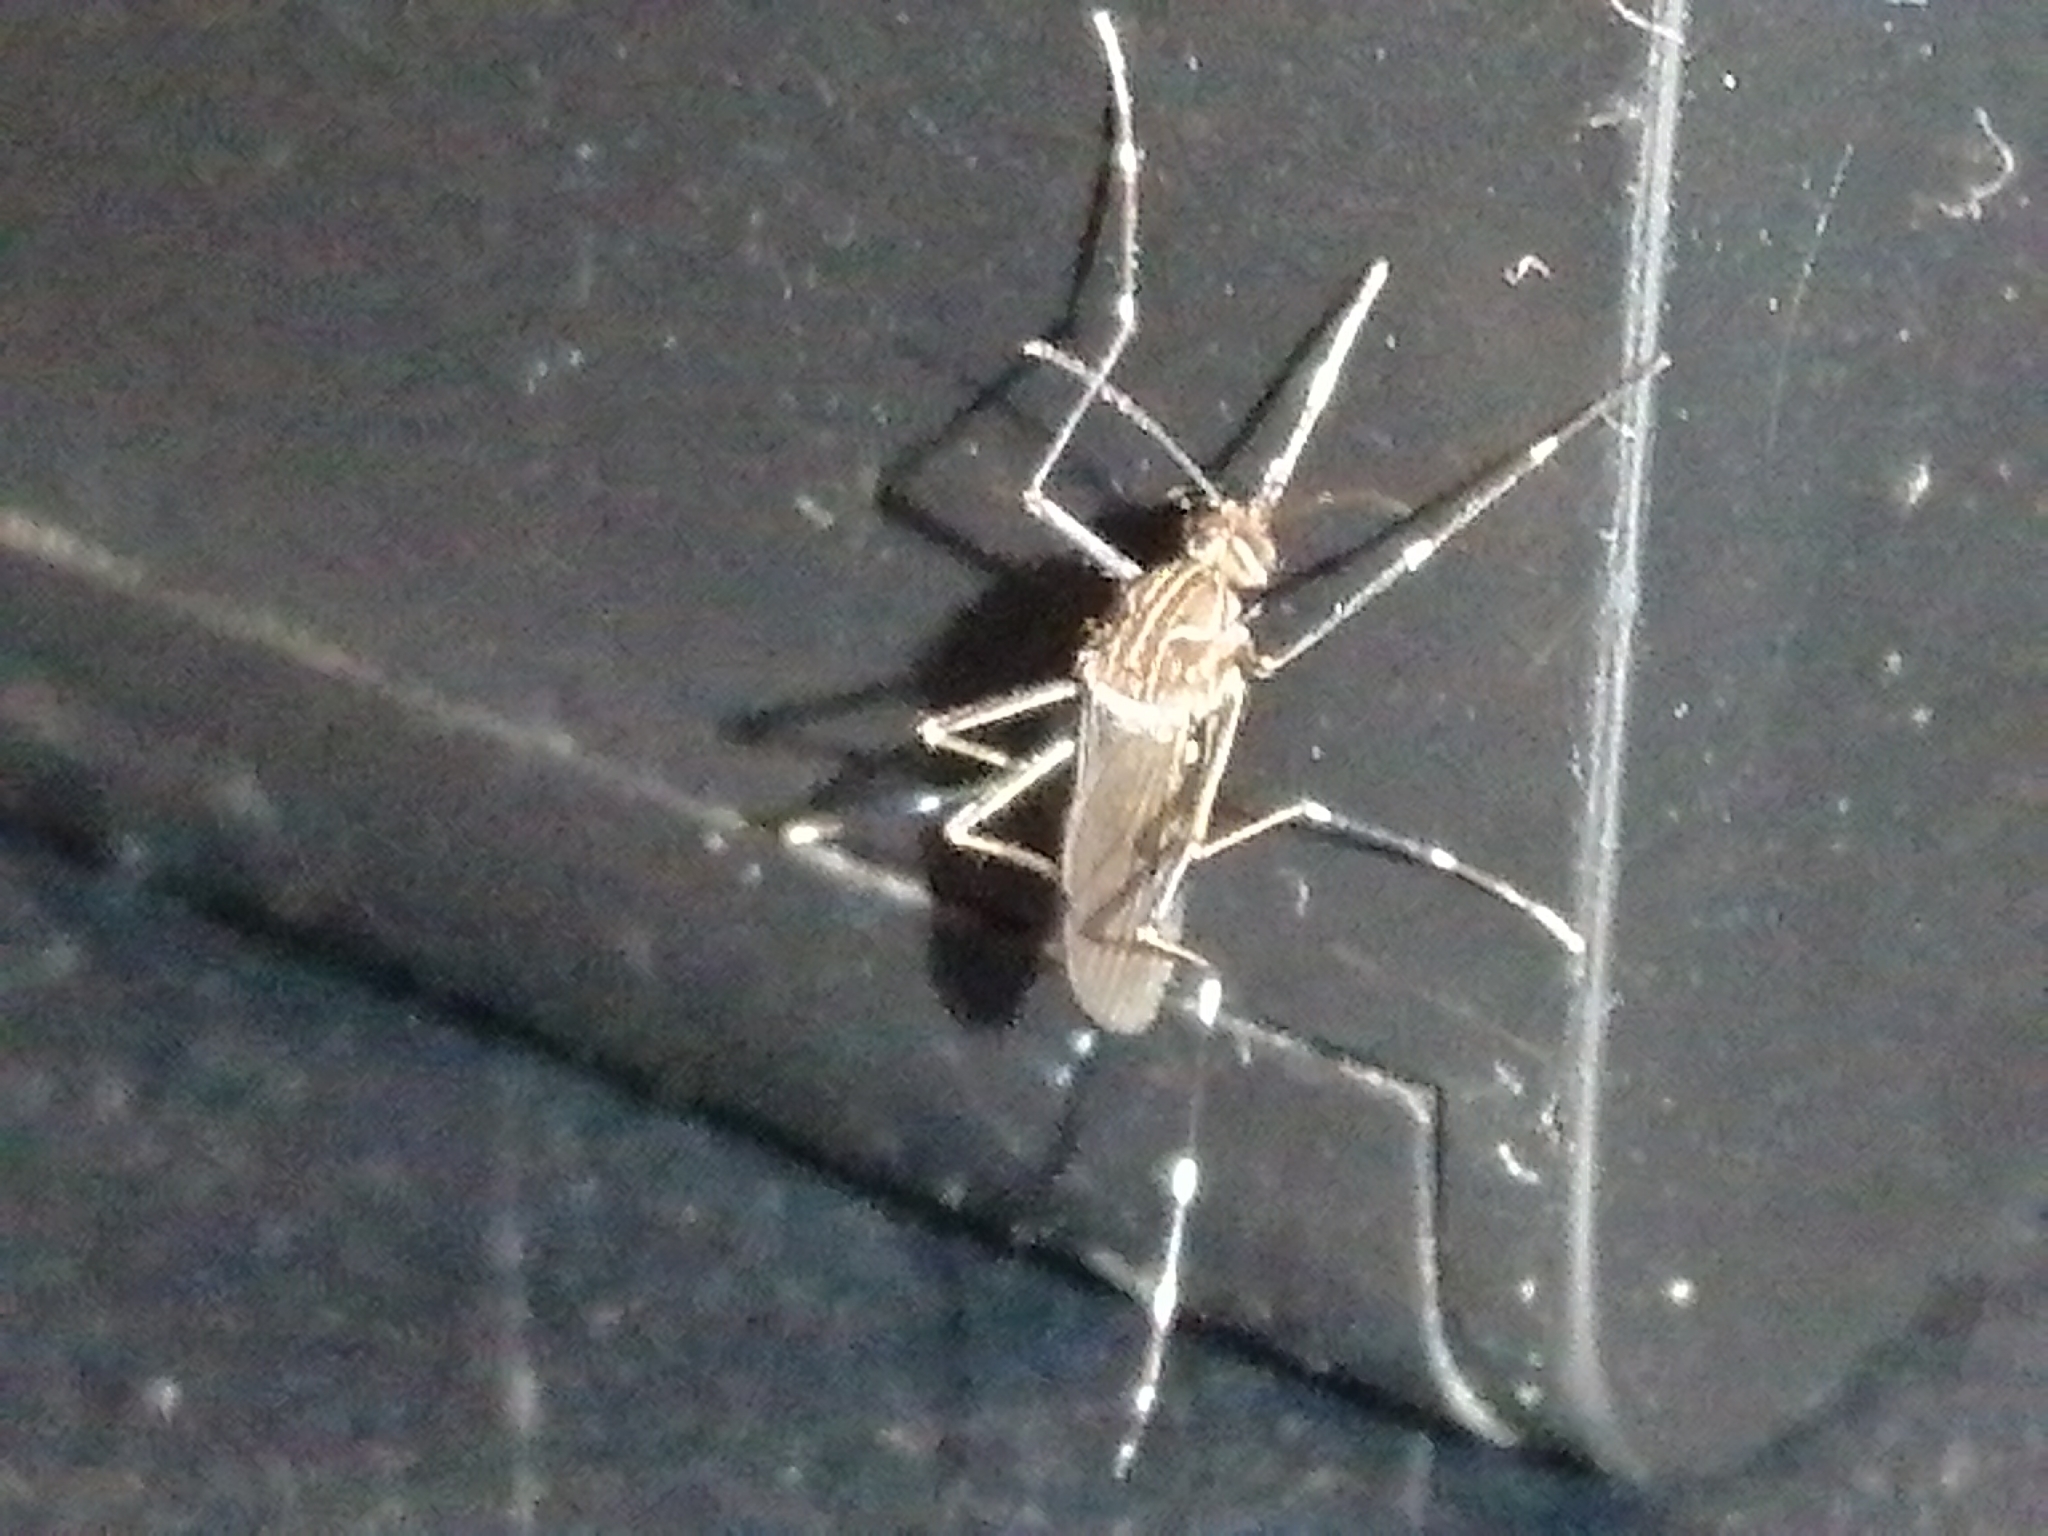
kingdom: Animalia
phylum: Arthropoda
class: Insecta
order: Diptera
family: Culicidae
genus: Aedes
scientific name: Aedes notoscriptus
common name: Australian backyard mosquito
